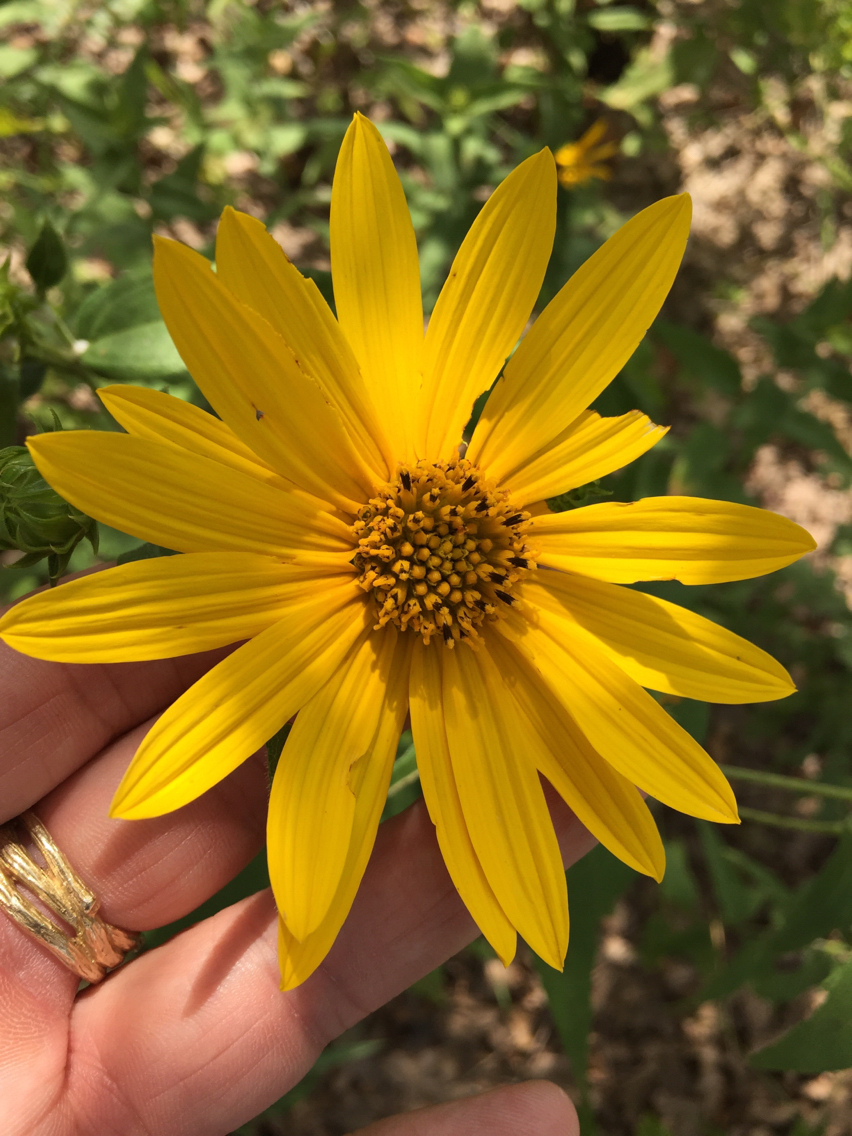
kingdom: Plantae
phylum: Tracheophyta
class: Magnoliopsida
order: Asterales
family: Asteraceae
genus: Helianthus
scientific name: Helianthus hirsutus
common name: Hairy sunflower
